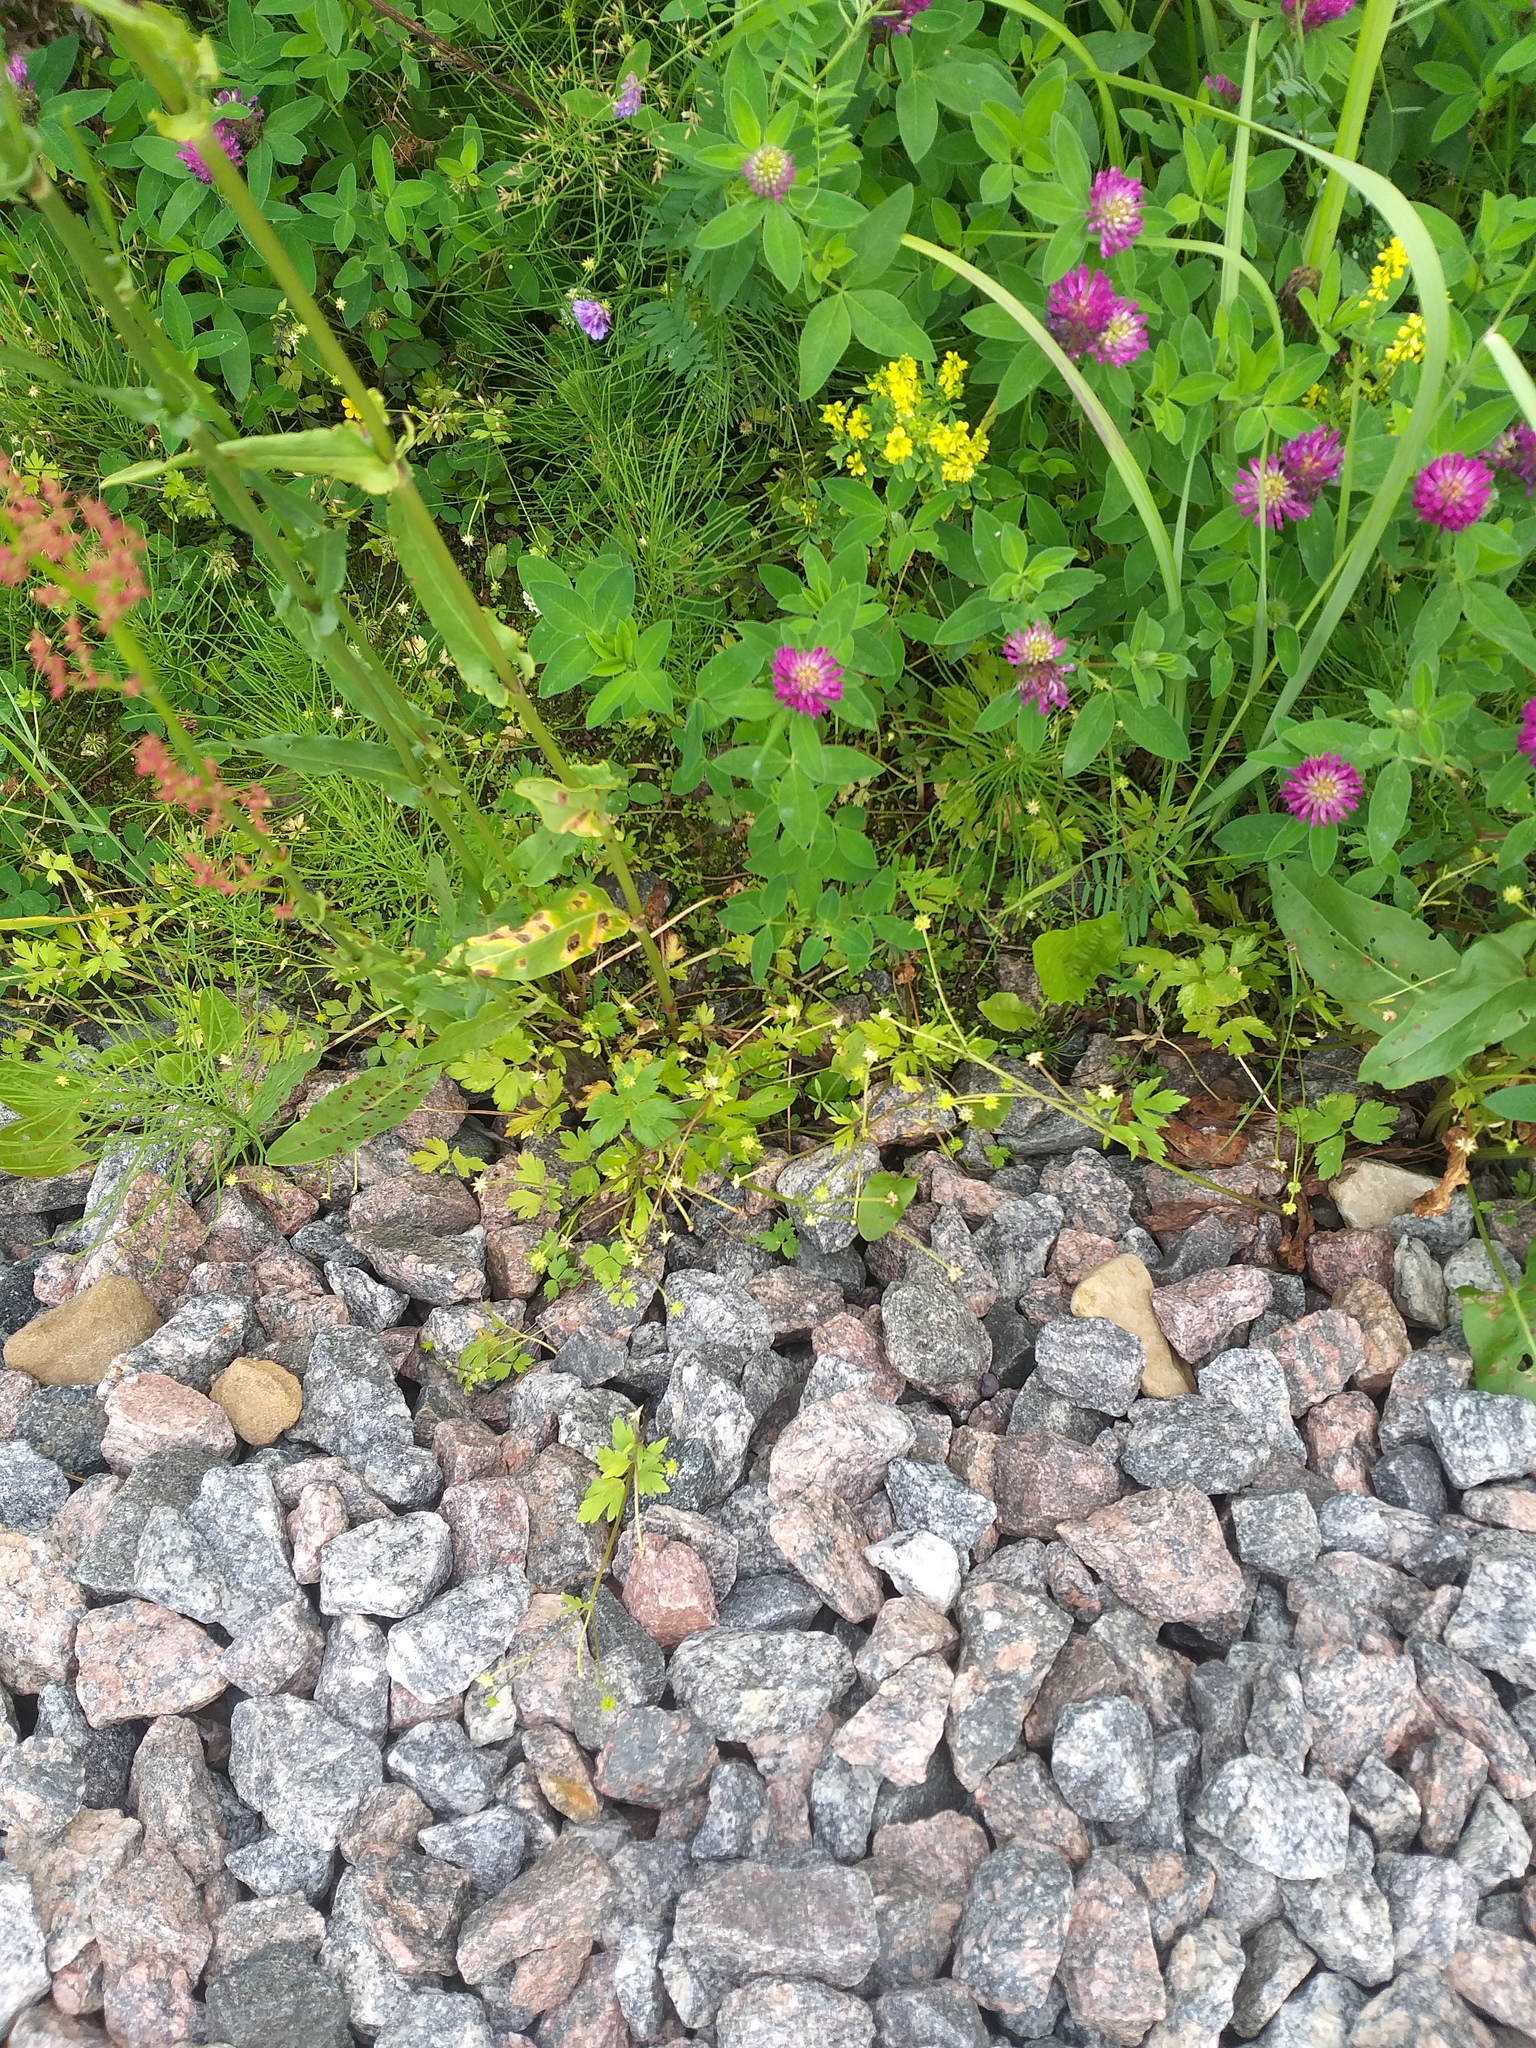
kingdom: Plantae
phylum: Tracheophyta
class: Magnoliopsida
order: Ranunculales
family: Ranunculaceae
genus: Ranunculus
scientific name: Ranunculus repens
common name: Creeping buttercup
